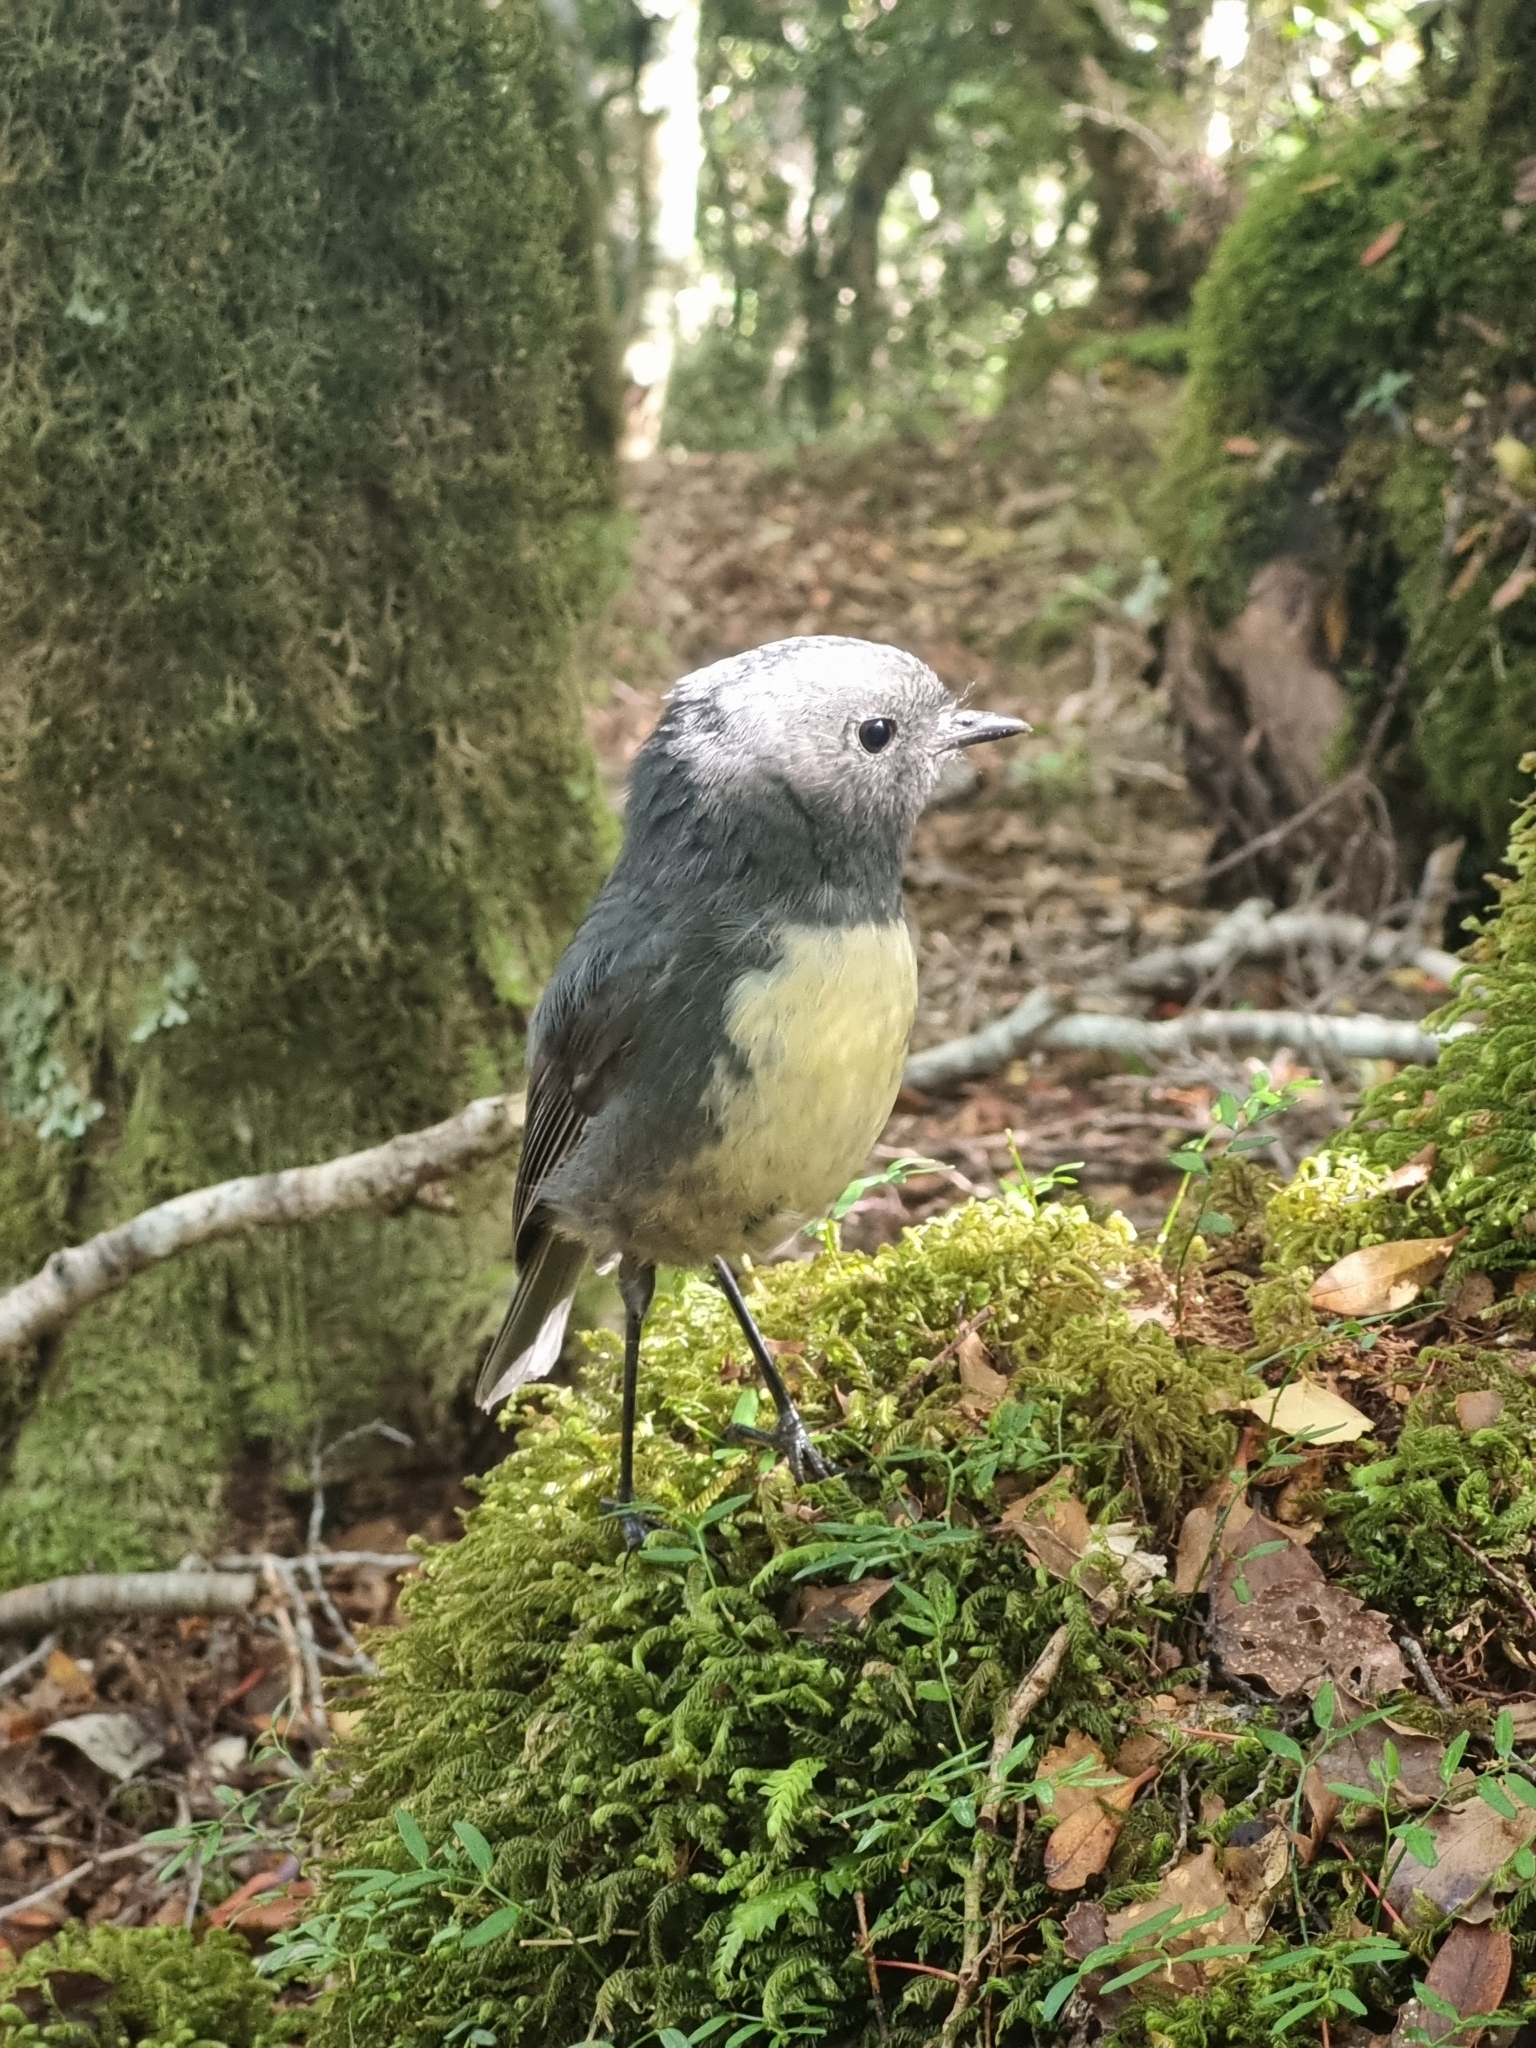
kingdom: Animalia
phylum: Chordata
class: Aves
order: Passeriformes
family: Petroicidae
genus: Petroica
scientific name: Petroica australis
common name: New zealand robin
